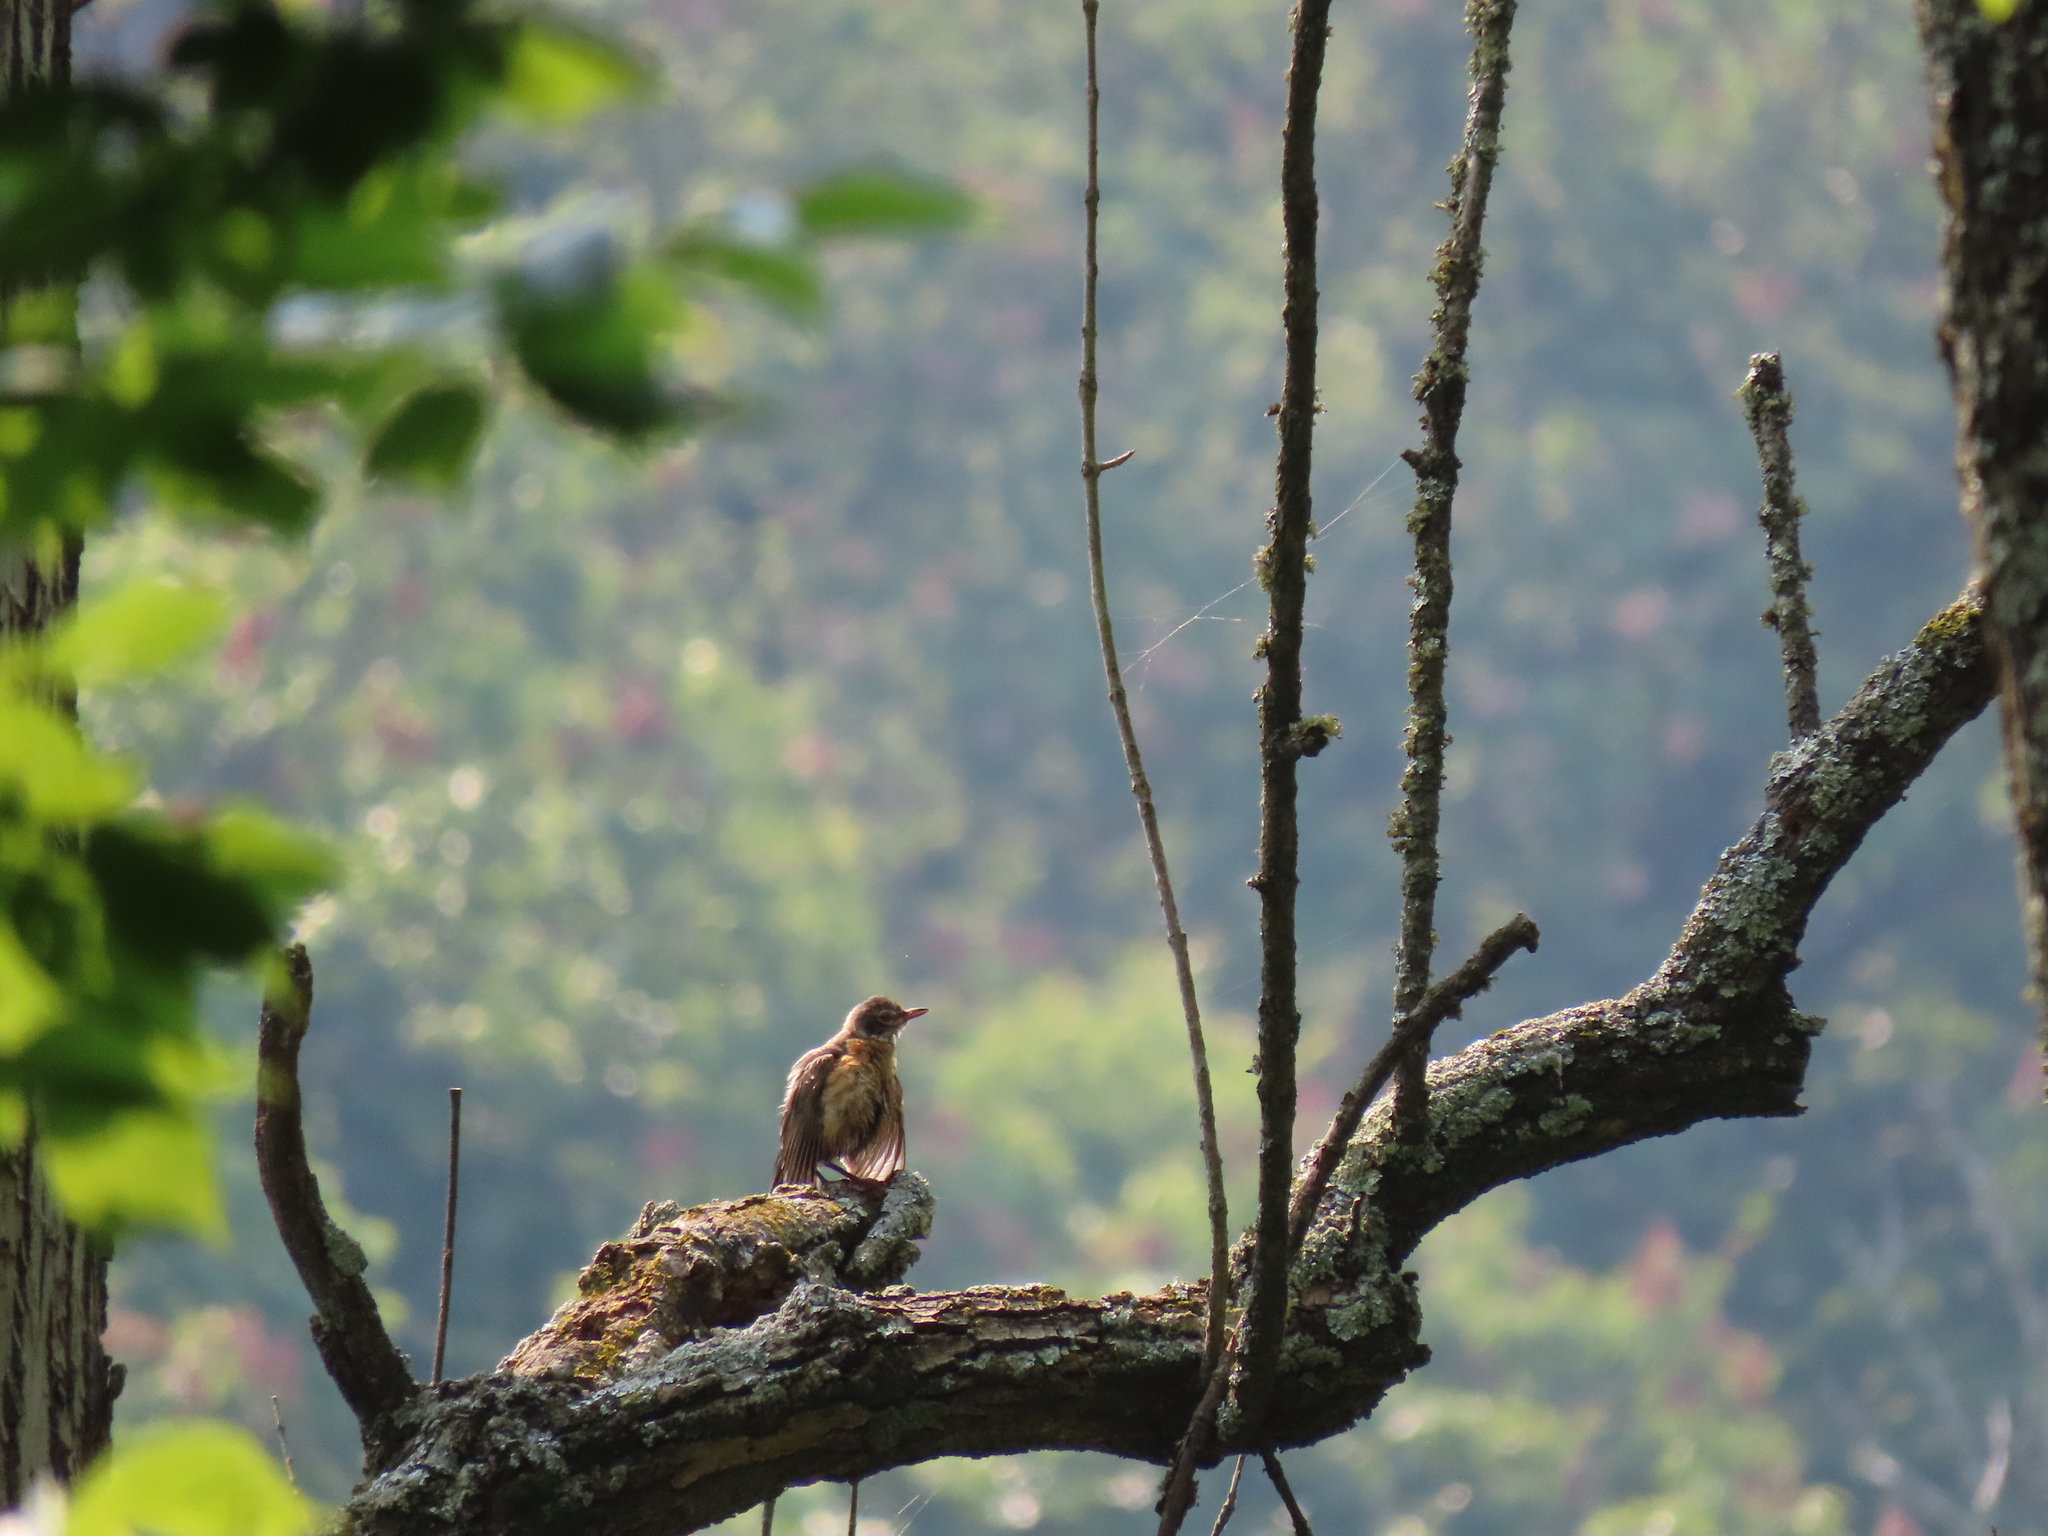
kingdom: Animalia
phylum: Chordata
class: Aves
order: Passeriformes
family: Turdidae
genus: Turdus
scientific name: Turdus migratorius
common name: American robin
